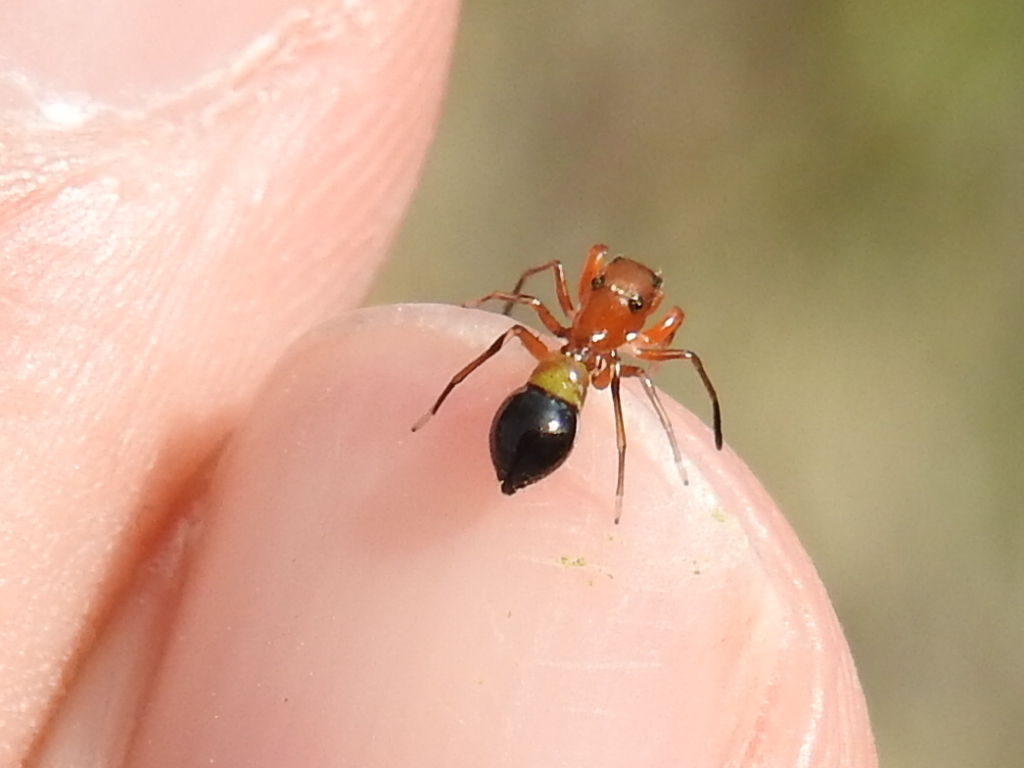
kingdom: Animalia
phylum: Arthropoda
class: Arachnida
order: Araneae
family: Salticidae
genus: Peckhamia
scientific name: Peckhamia
